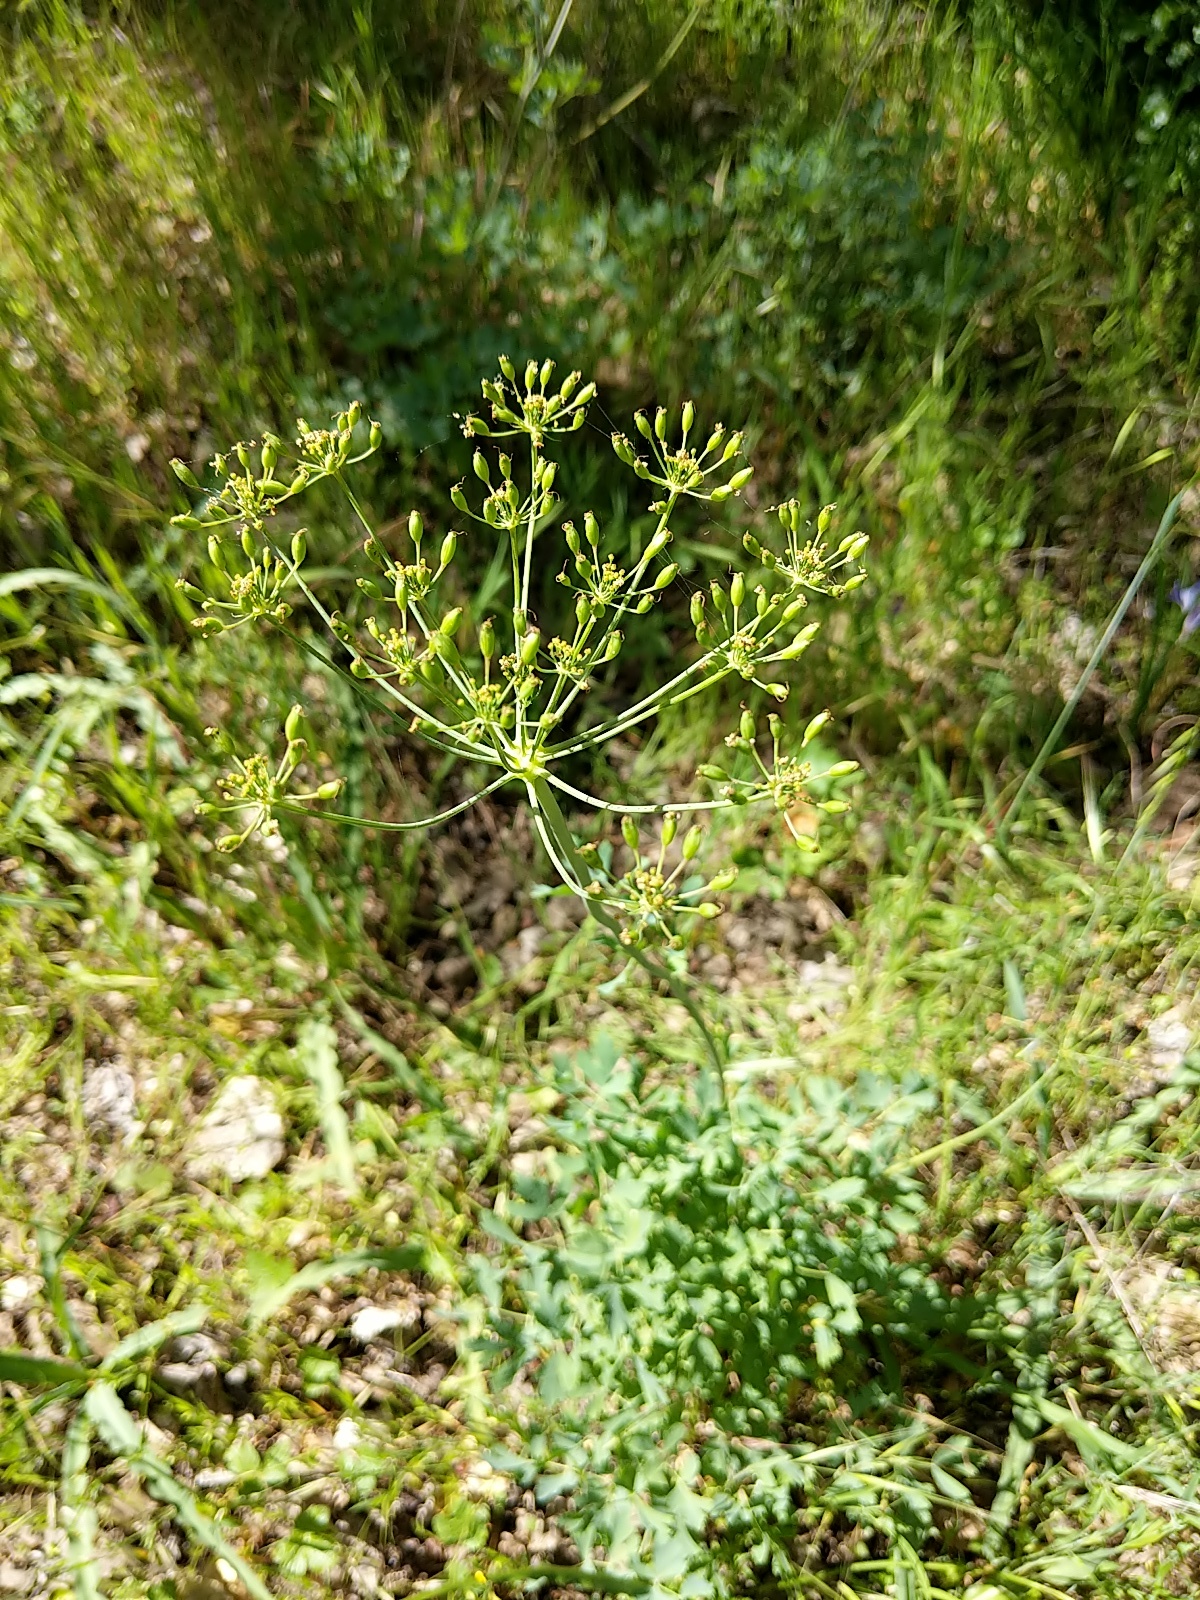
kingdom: Plantae
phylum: Tracheophyta
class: Magnoliopsida
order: Apiales
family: Apiaceae
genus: Lomatium
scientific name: Lomatium californicum
